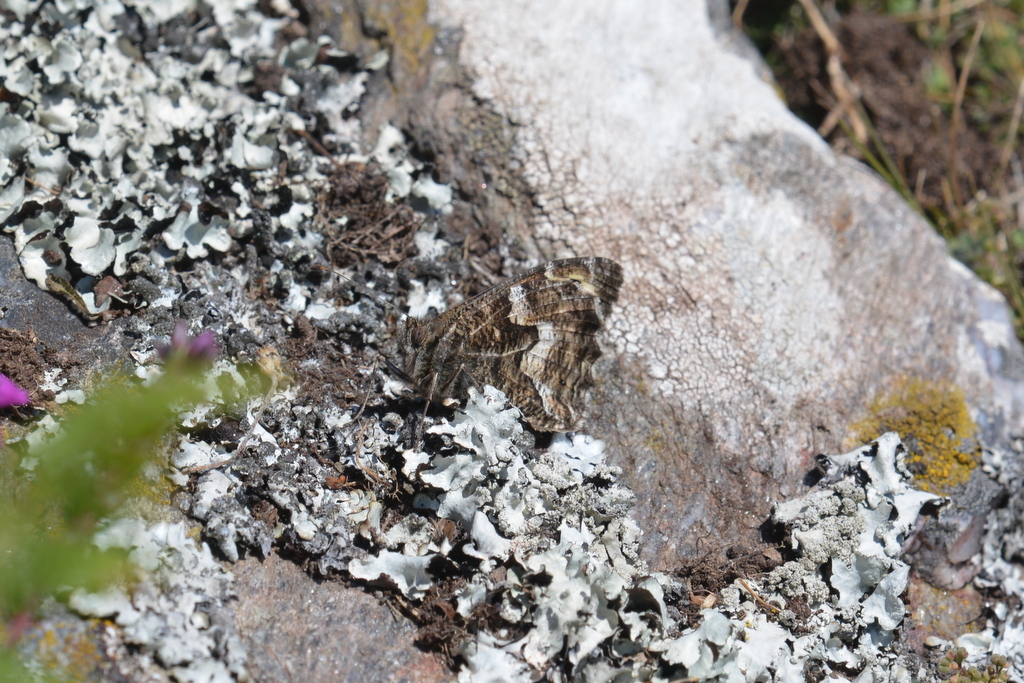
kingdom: Animalia
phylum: Arthropoda
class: Insecta
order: Lepidoptera
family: Nymphalidae
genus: Hipparchia
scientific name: Hipparchia semele
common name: Grayling
